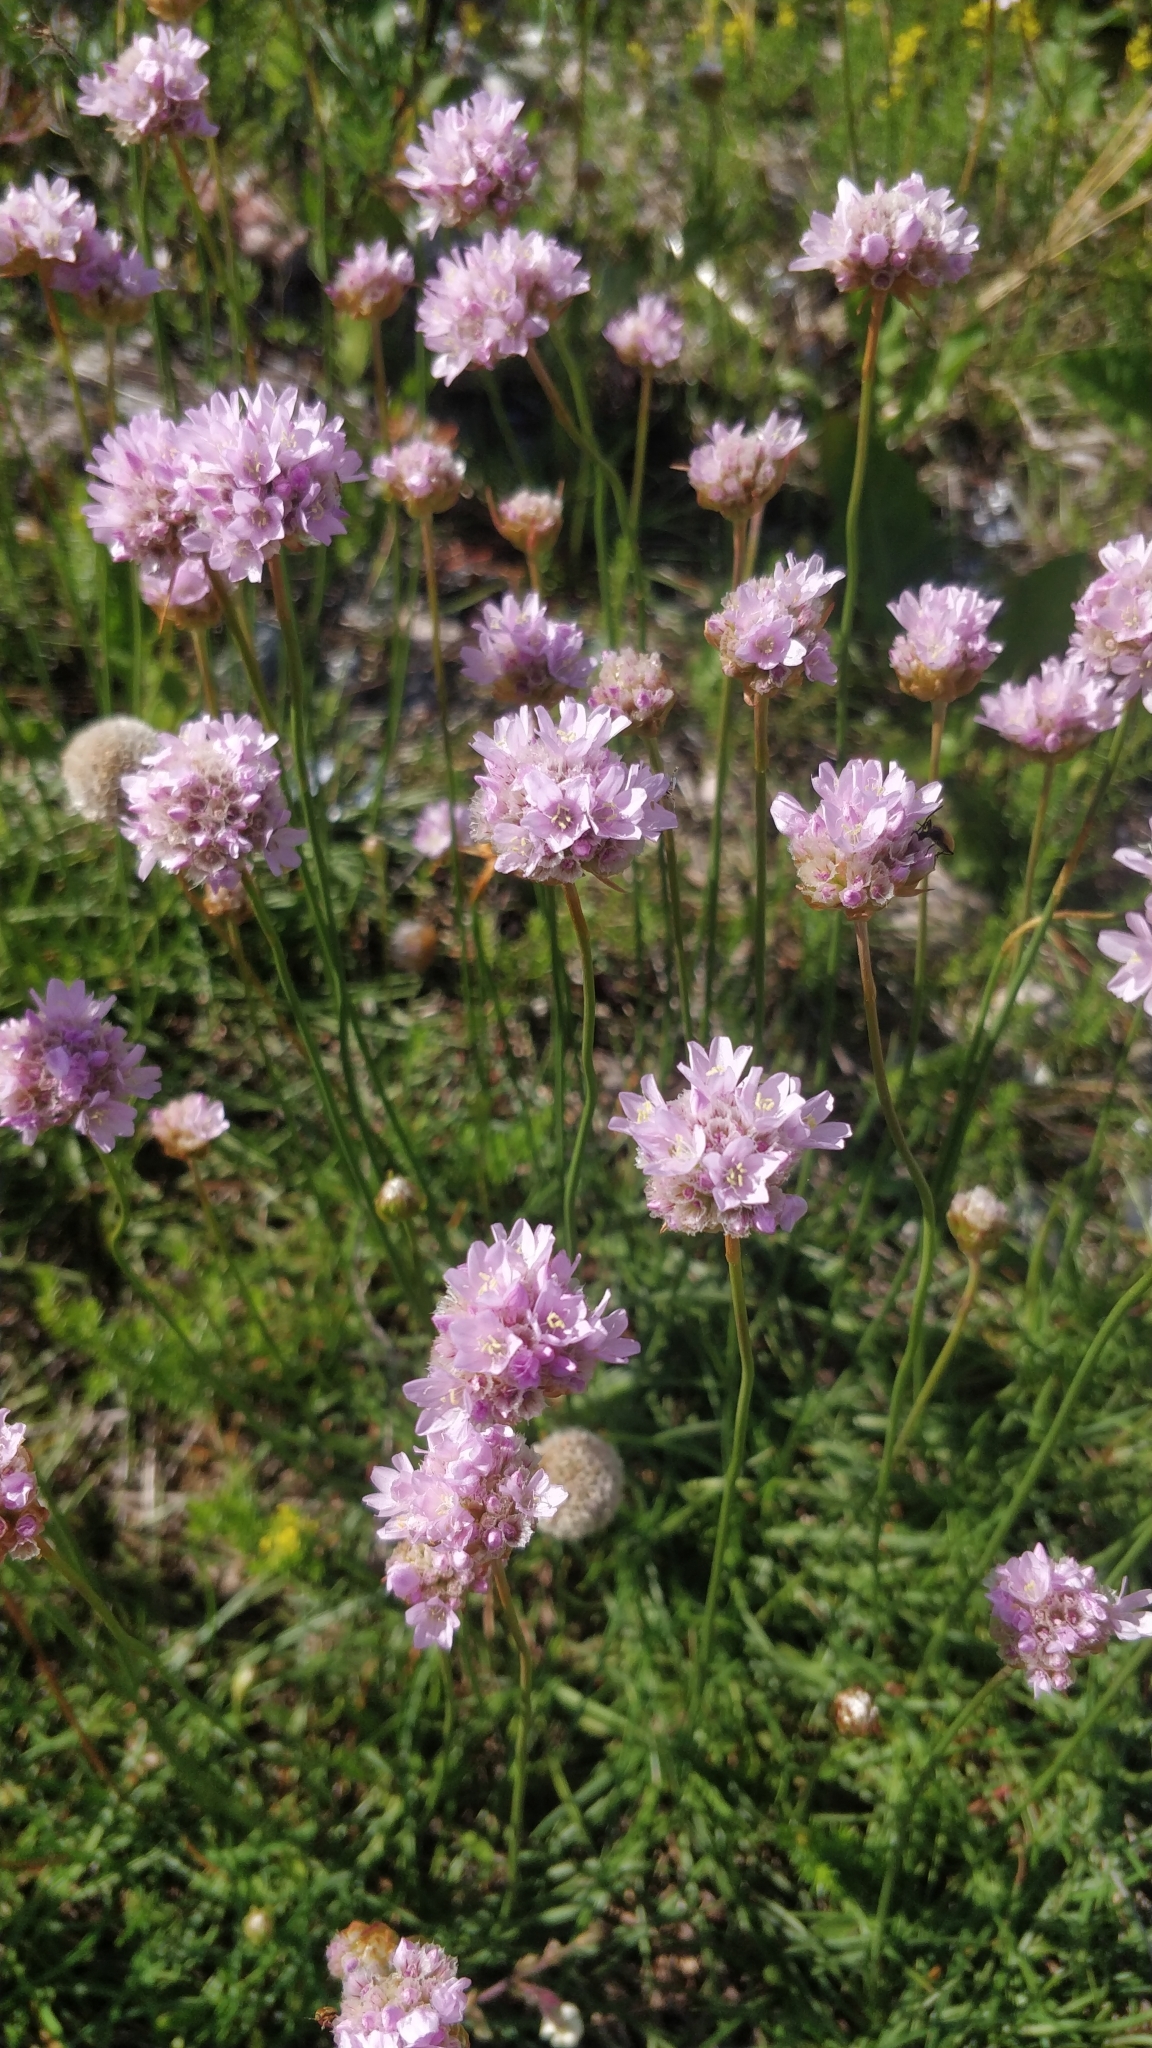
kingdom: Plantae
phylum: Tracheophyta
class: Magnoliopsida
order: Caryophyllales
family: Plumbaginaceae
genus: Armeria
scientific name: Armeria maritima
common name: Thrift
